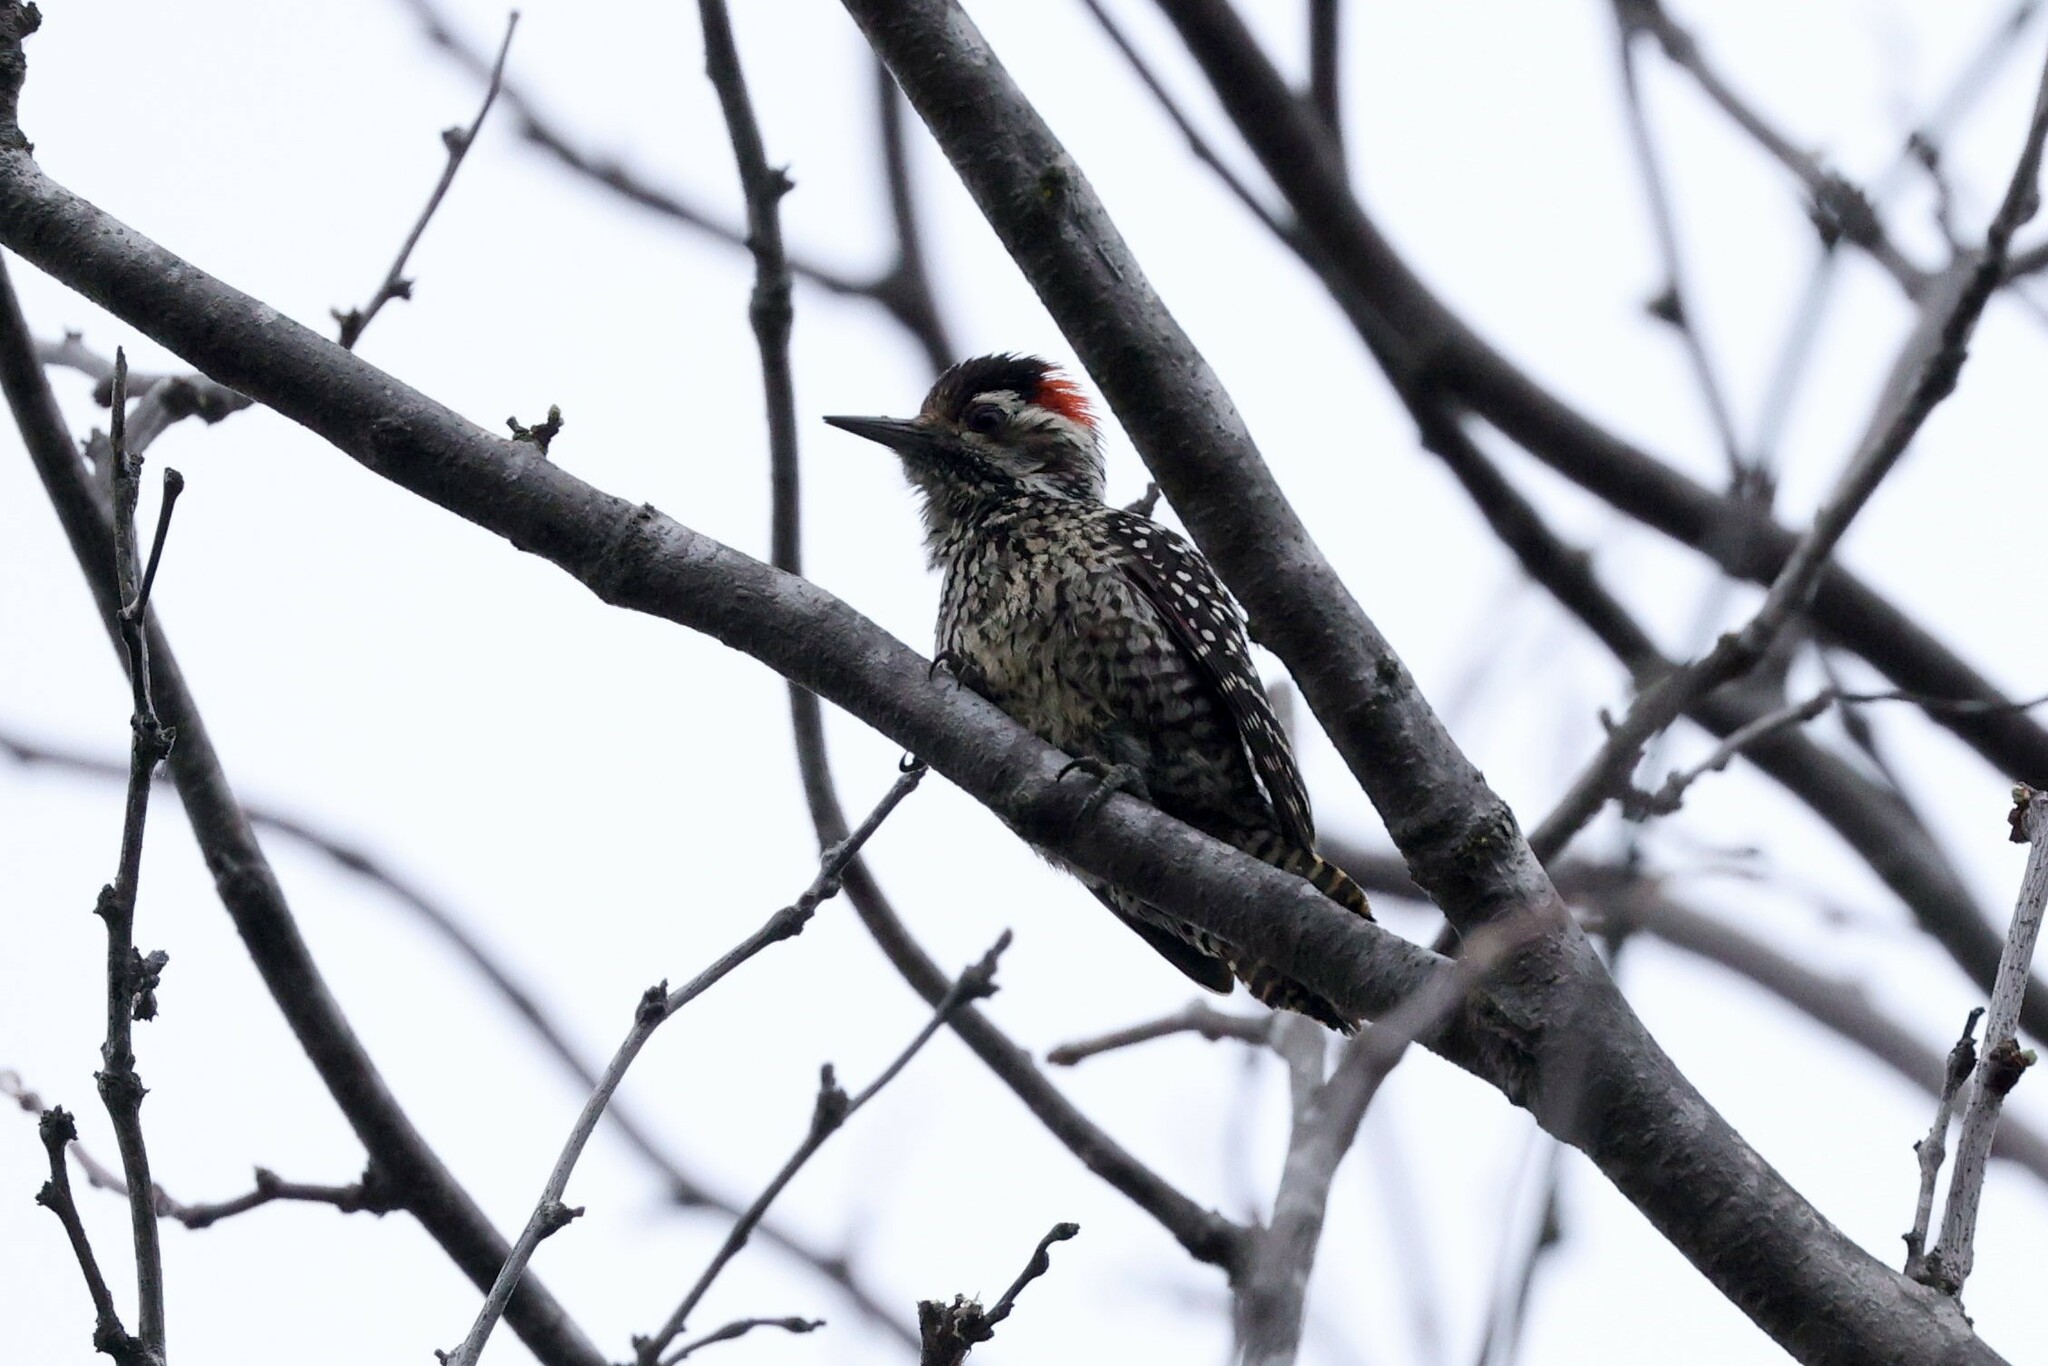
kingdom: Animalia
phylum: Chordata
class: Aves
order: Piciformes
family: Picidae
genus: Veniliornis
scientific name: Veniliornis lignarius
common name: Striped woodpecker
